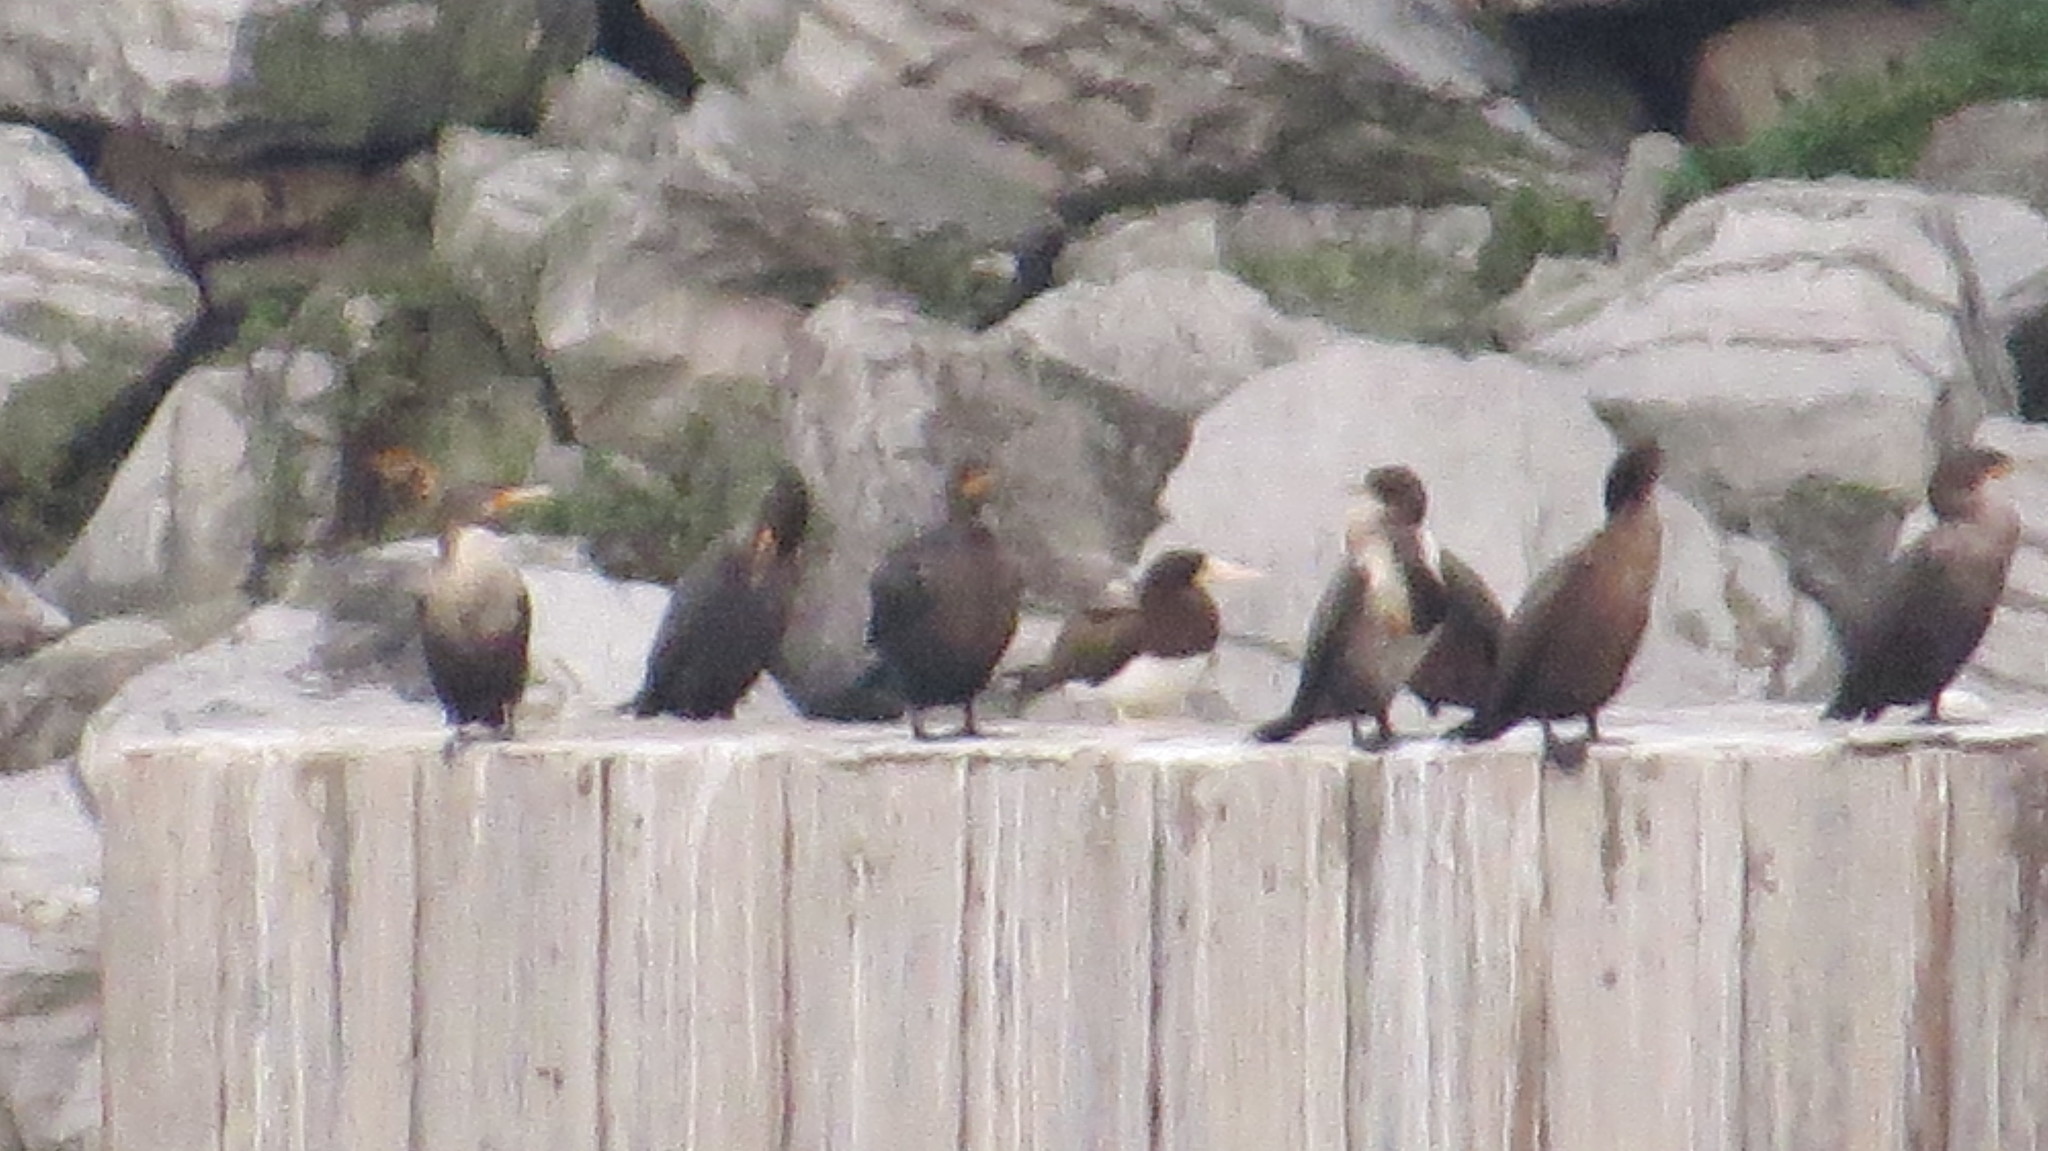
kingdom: Animalia
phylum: Chordata
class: Aves
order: Suliformes
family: Sulidae
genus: Sula
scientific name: Sula leucogaster
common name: Brown booby
